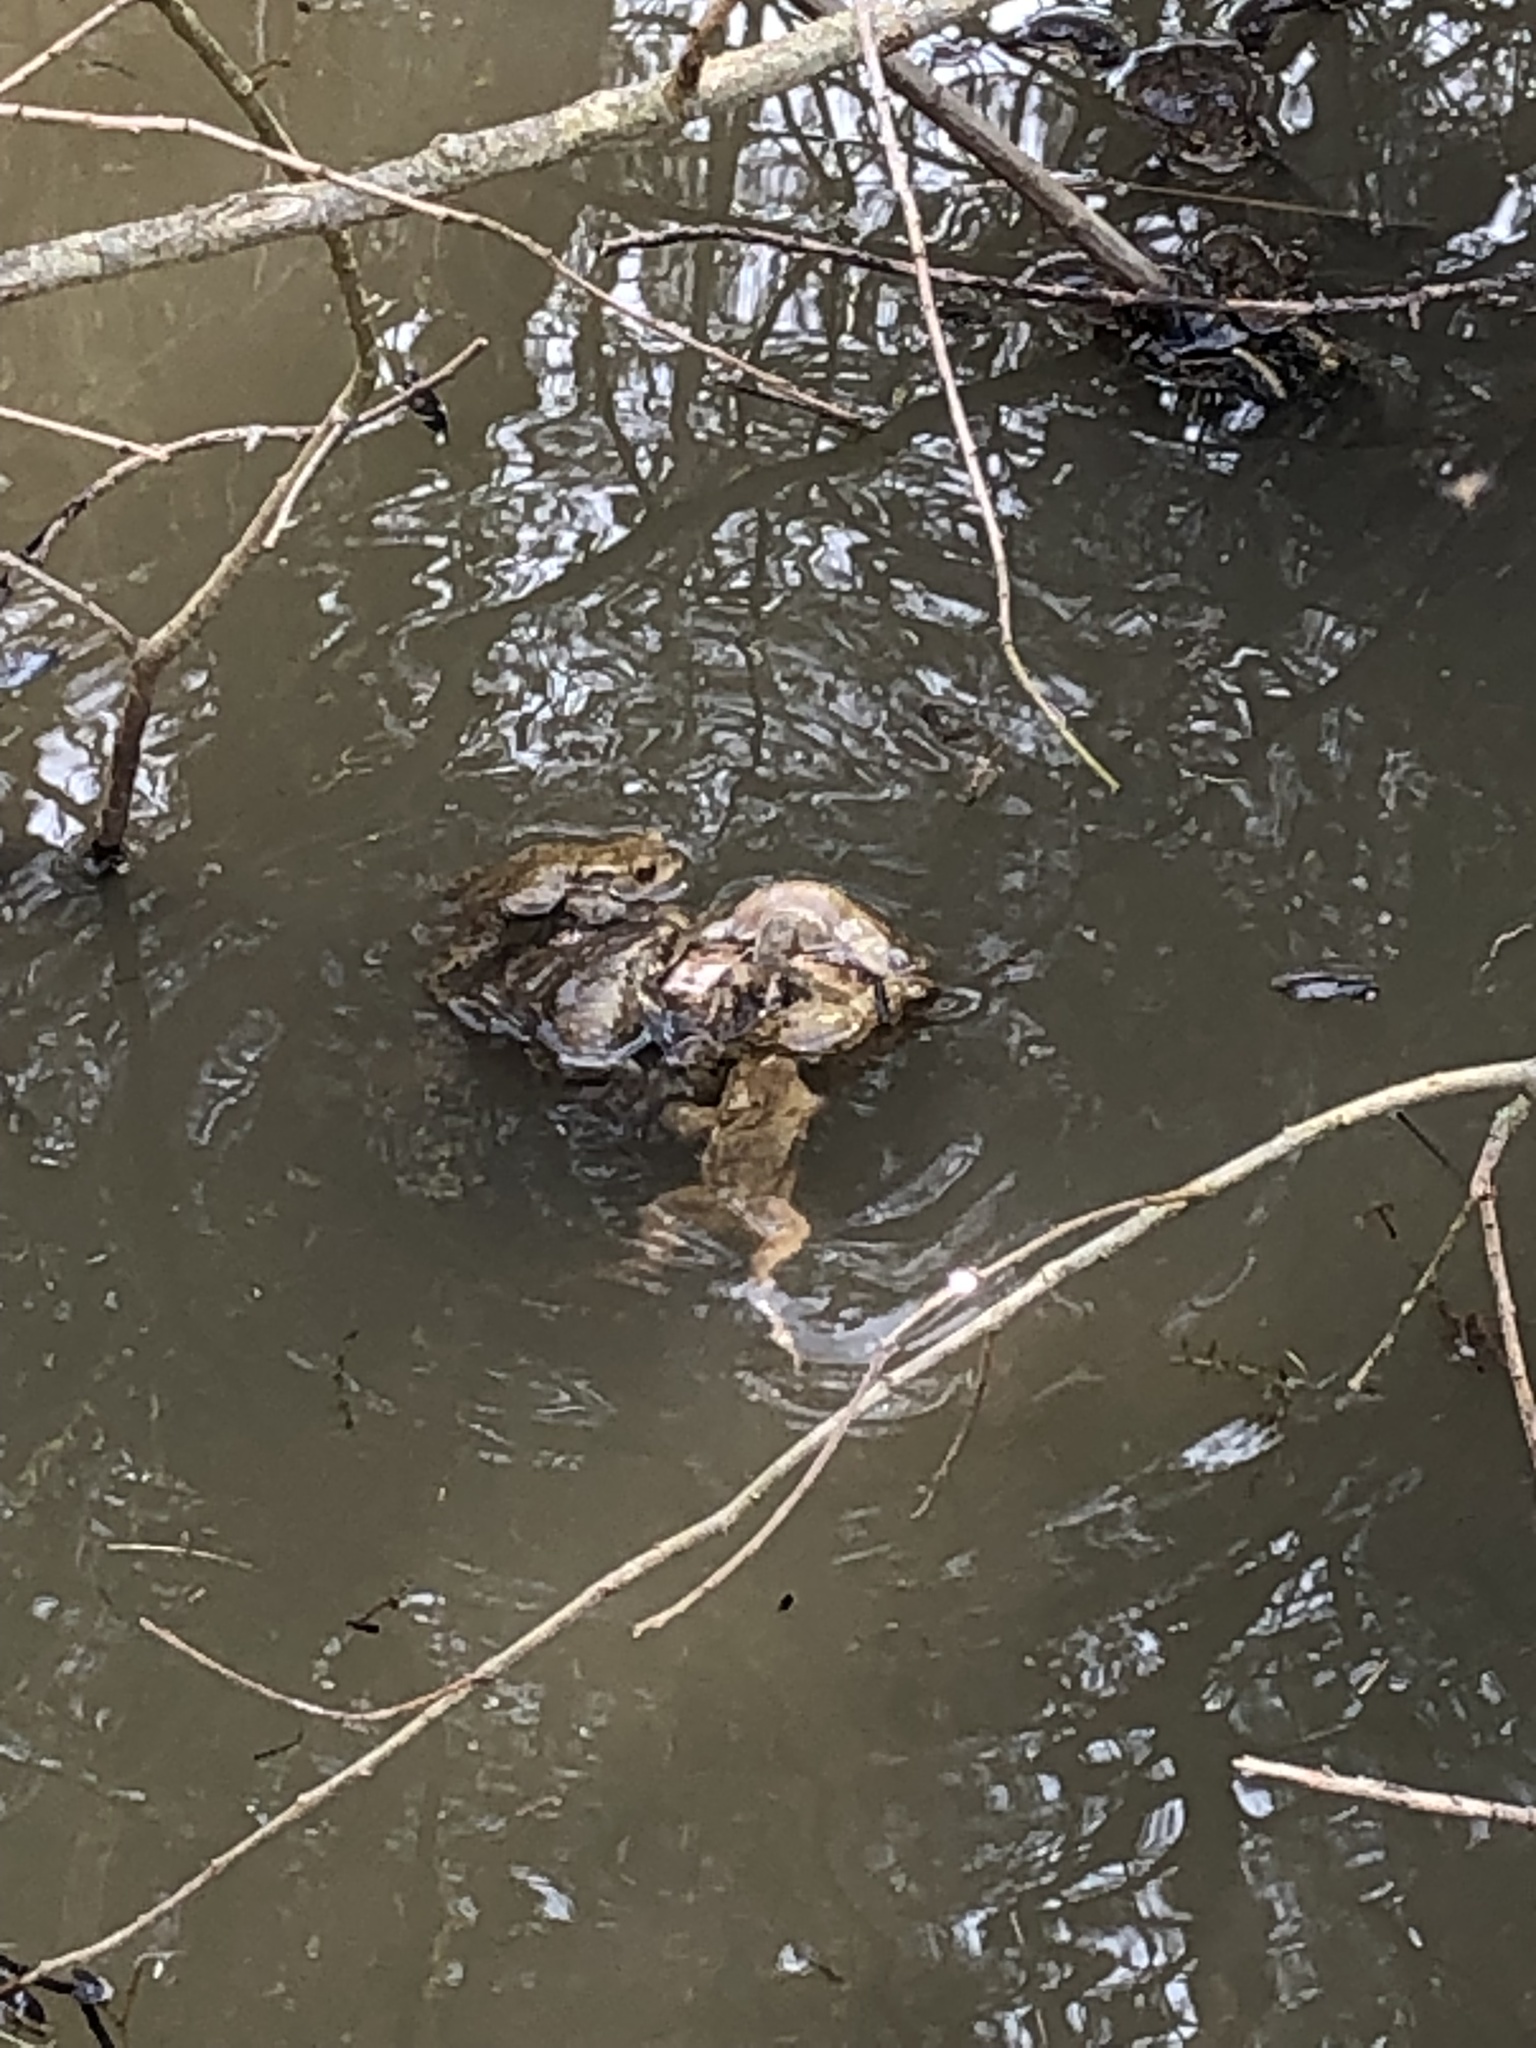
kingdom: Animalia
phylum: Chordata
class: Amphibia
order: Anura
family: Bufonidae
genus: Bufo
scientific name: Bufo bufo
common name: Common toad
